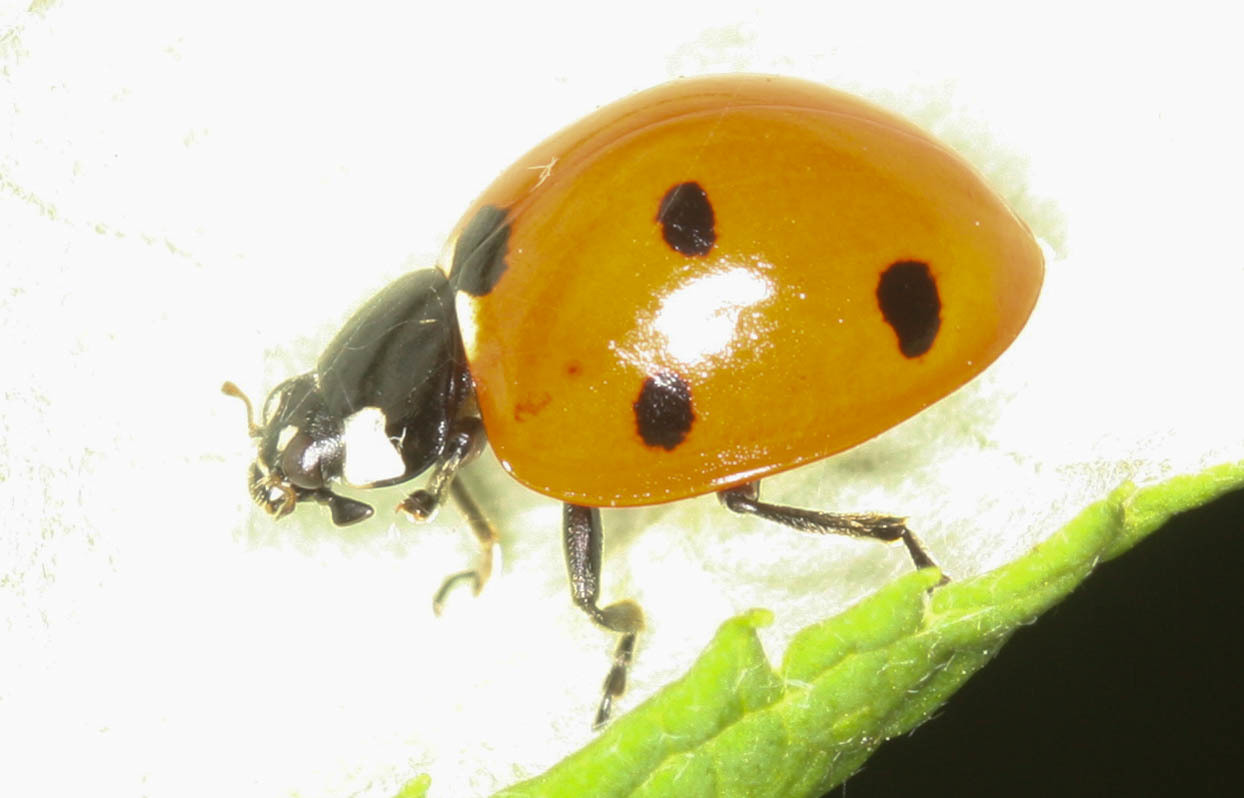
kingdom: Animalia
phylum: Arthropoda
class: Insecta
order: Coleoptera
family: Coccinellidae
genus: Coccinella
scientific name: Coccinella septempunctata
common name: Sevenspotted lady beetle
